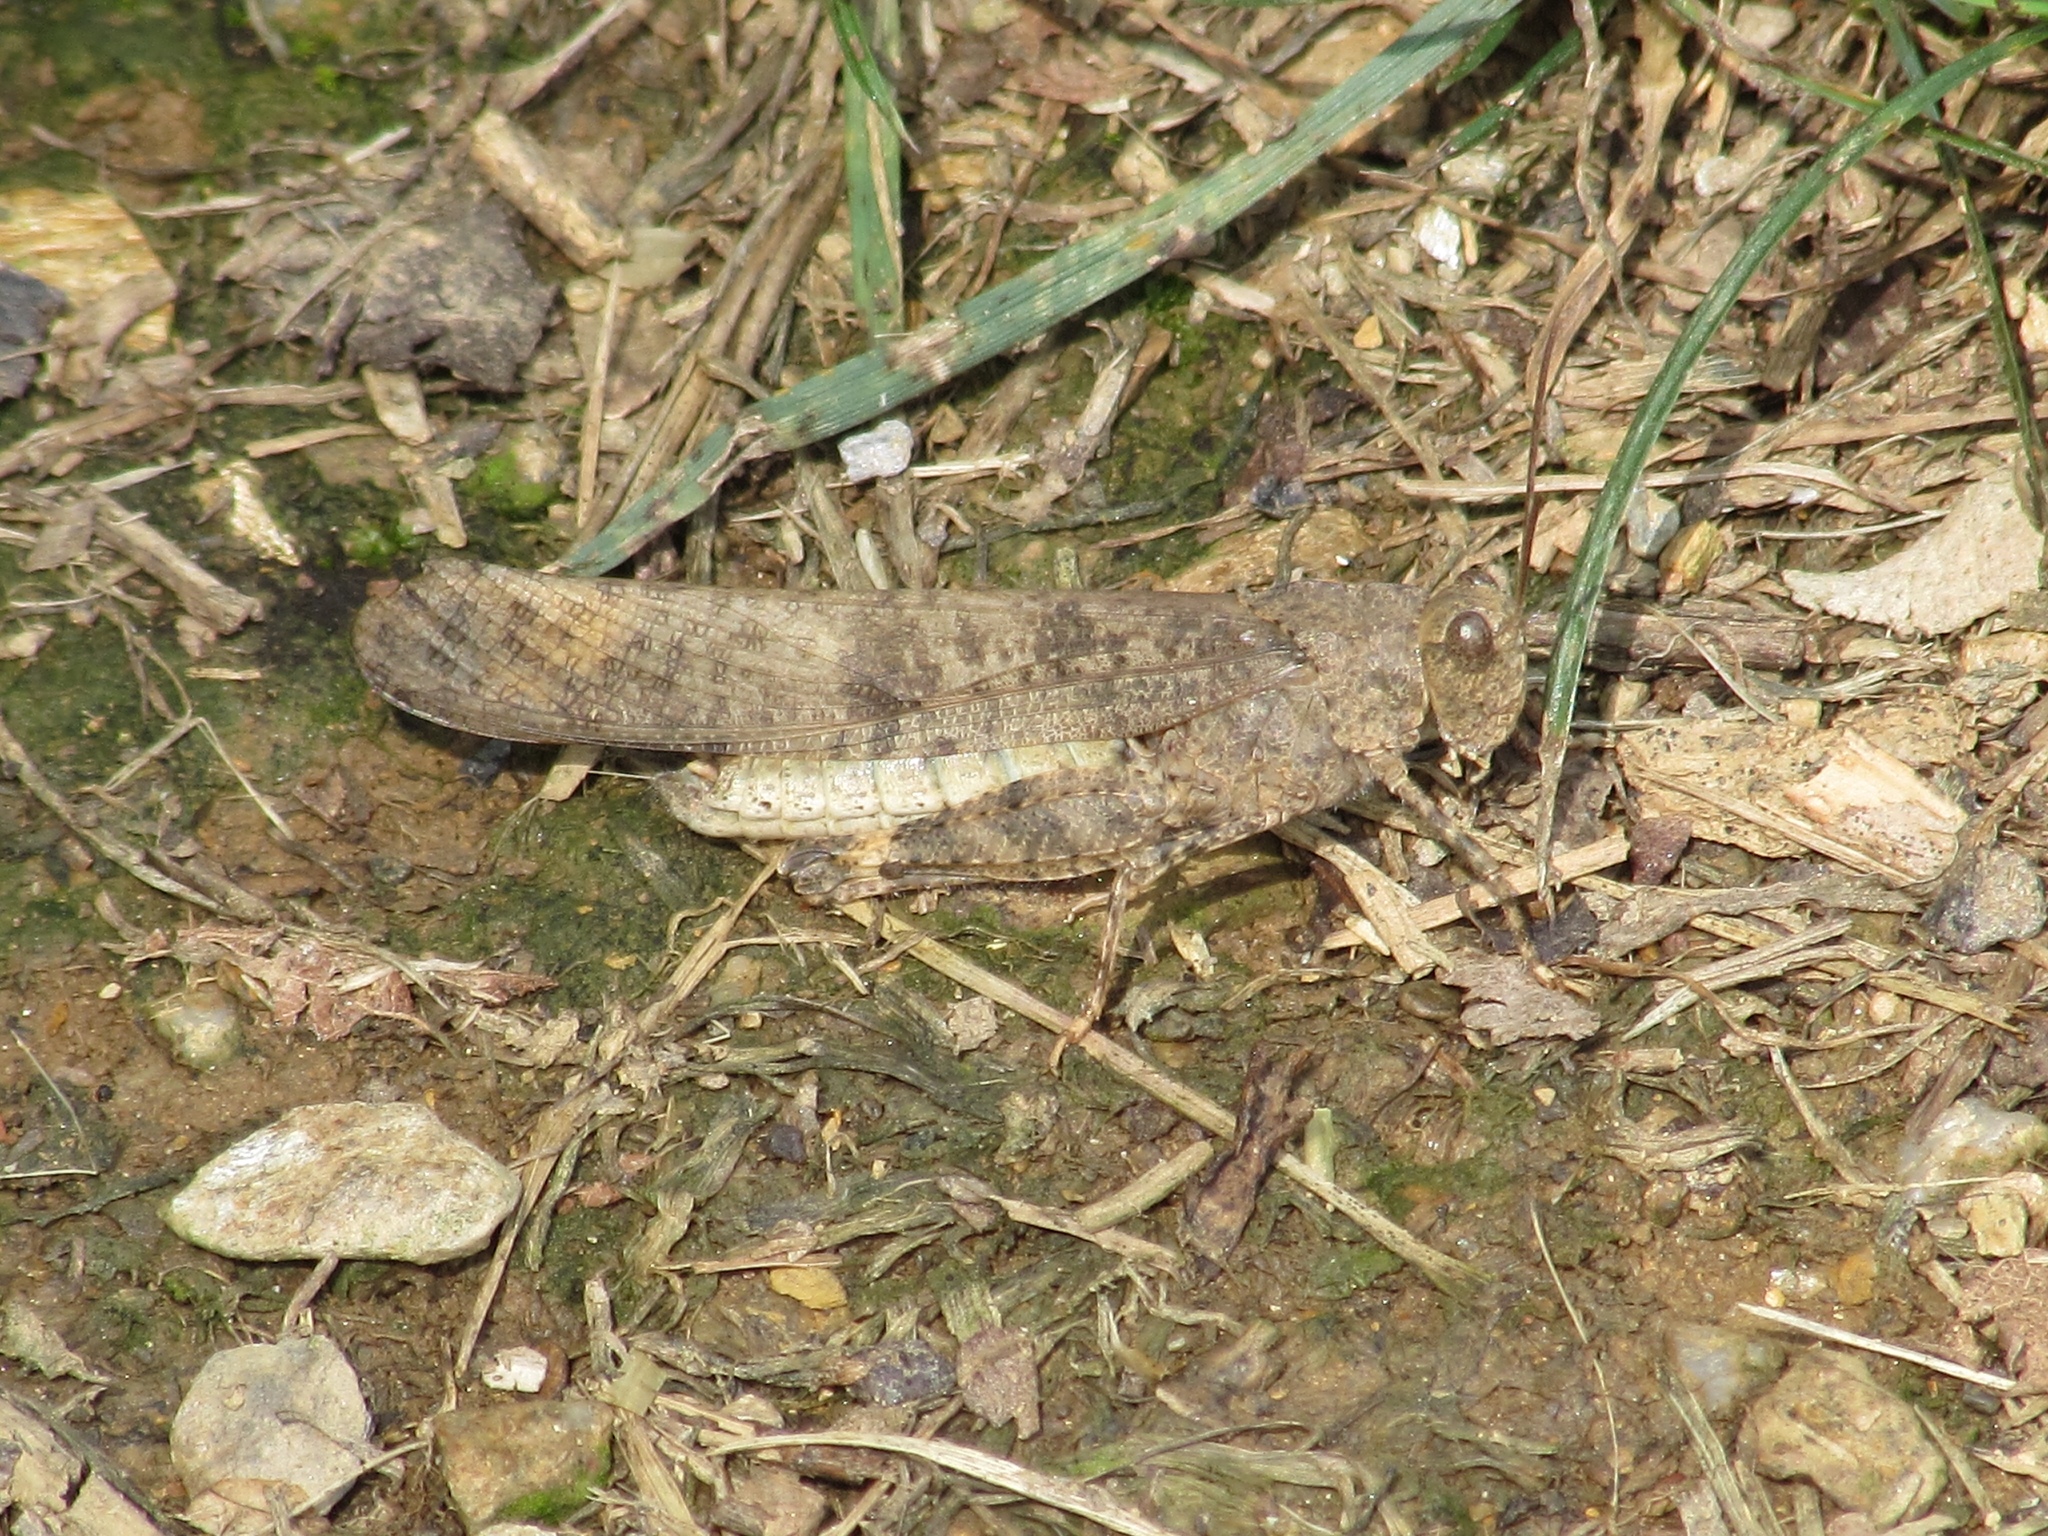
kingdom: Animalia
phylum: Arthropoda
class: Insecta
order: Orthoptera
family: Acrididae
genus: Dissosteira
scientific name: Dissosteira carolina
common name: Carolina grasshopper
